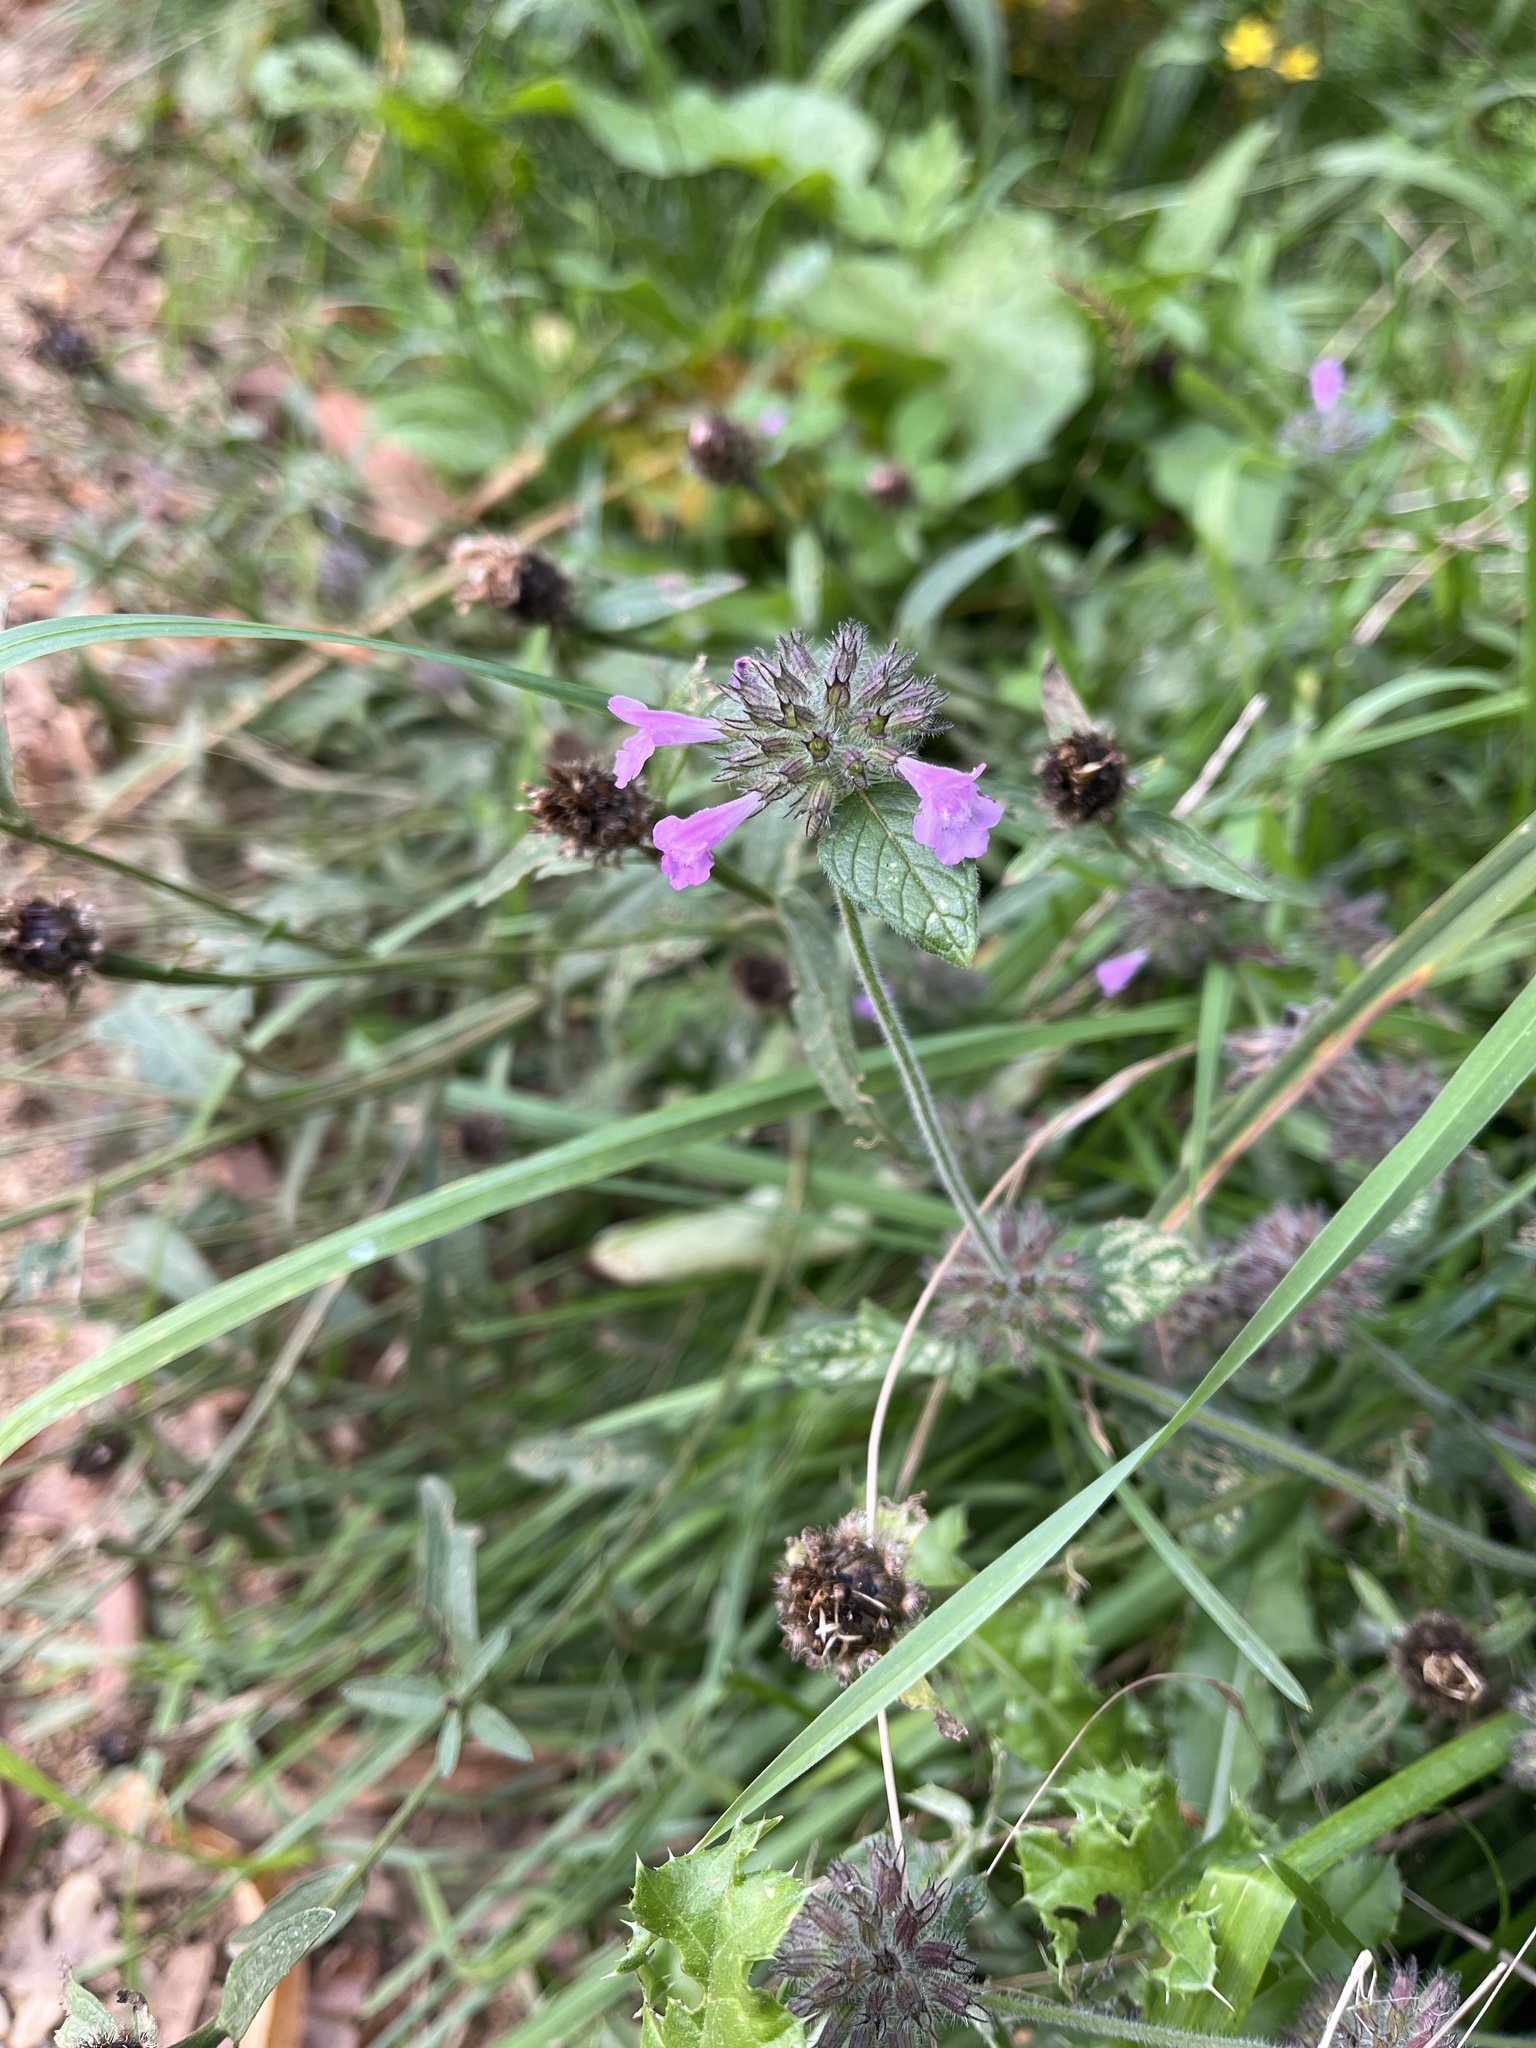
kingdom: Plantae
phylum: Tracheophyta
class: Magnoliopsida
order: Lamiales
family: Lamiaceae
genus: Clinopodium
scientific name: Clinopodium vulgare
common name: Wild basil
